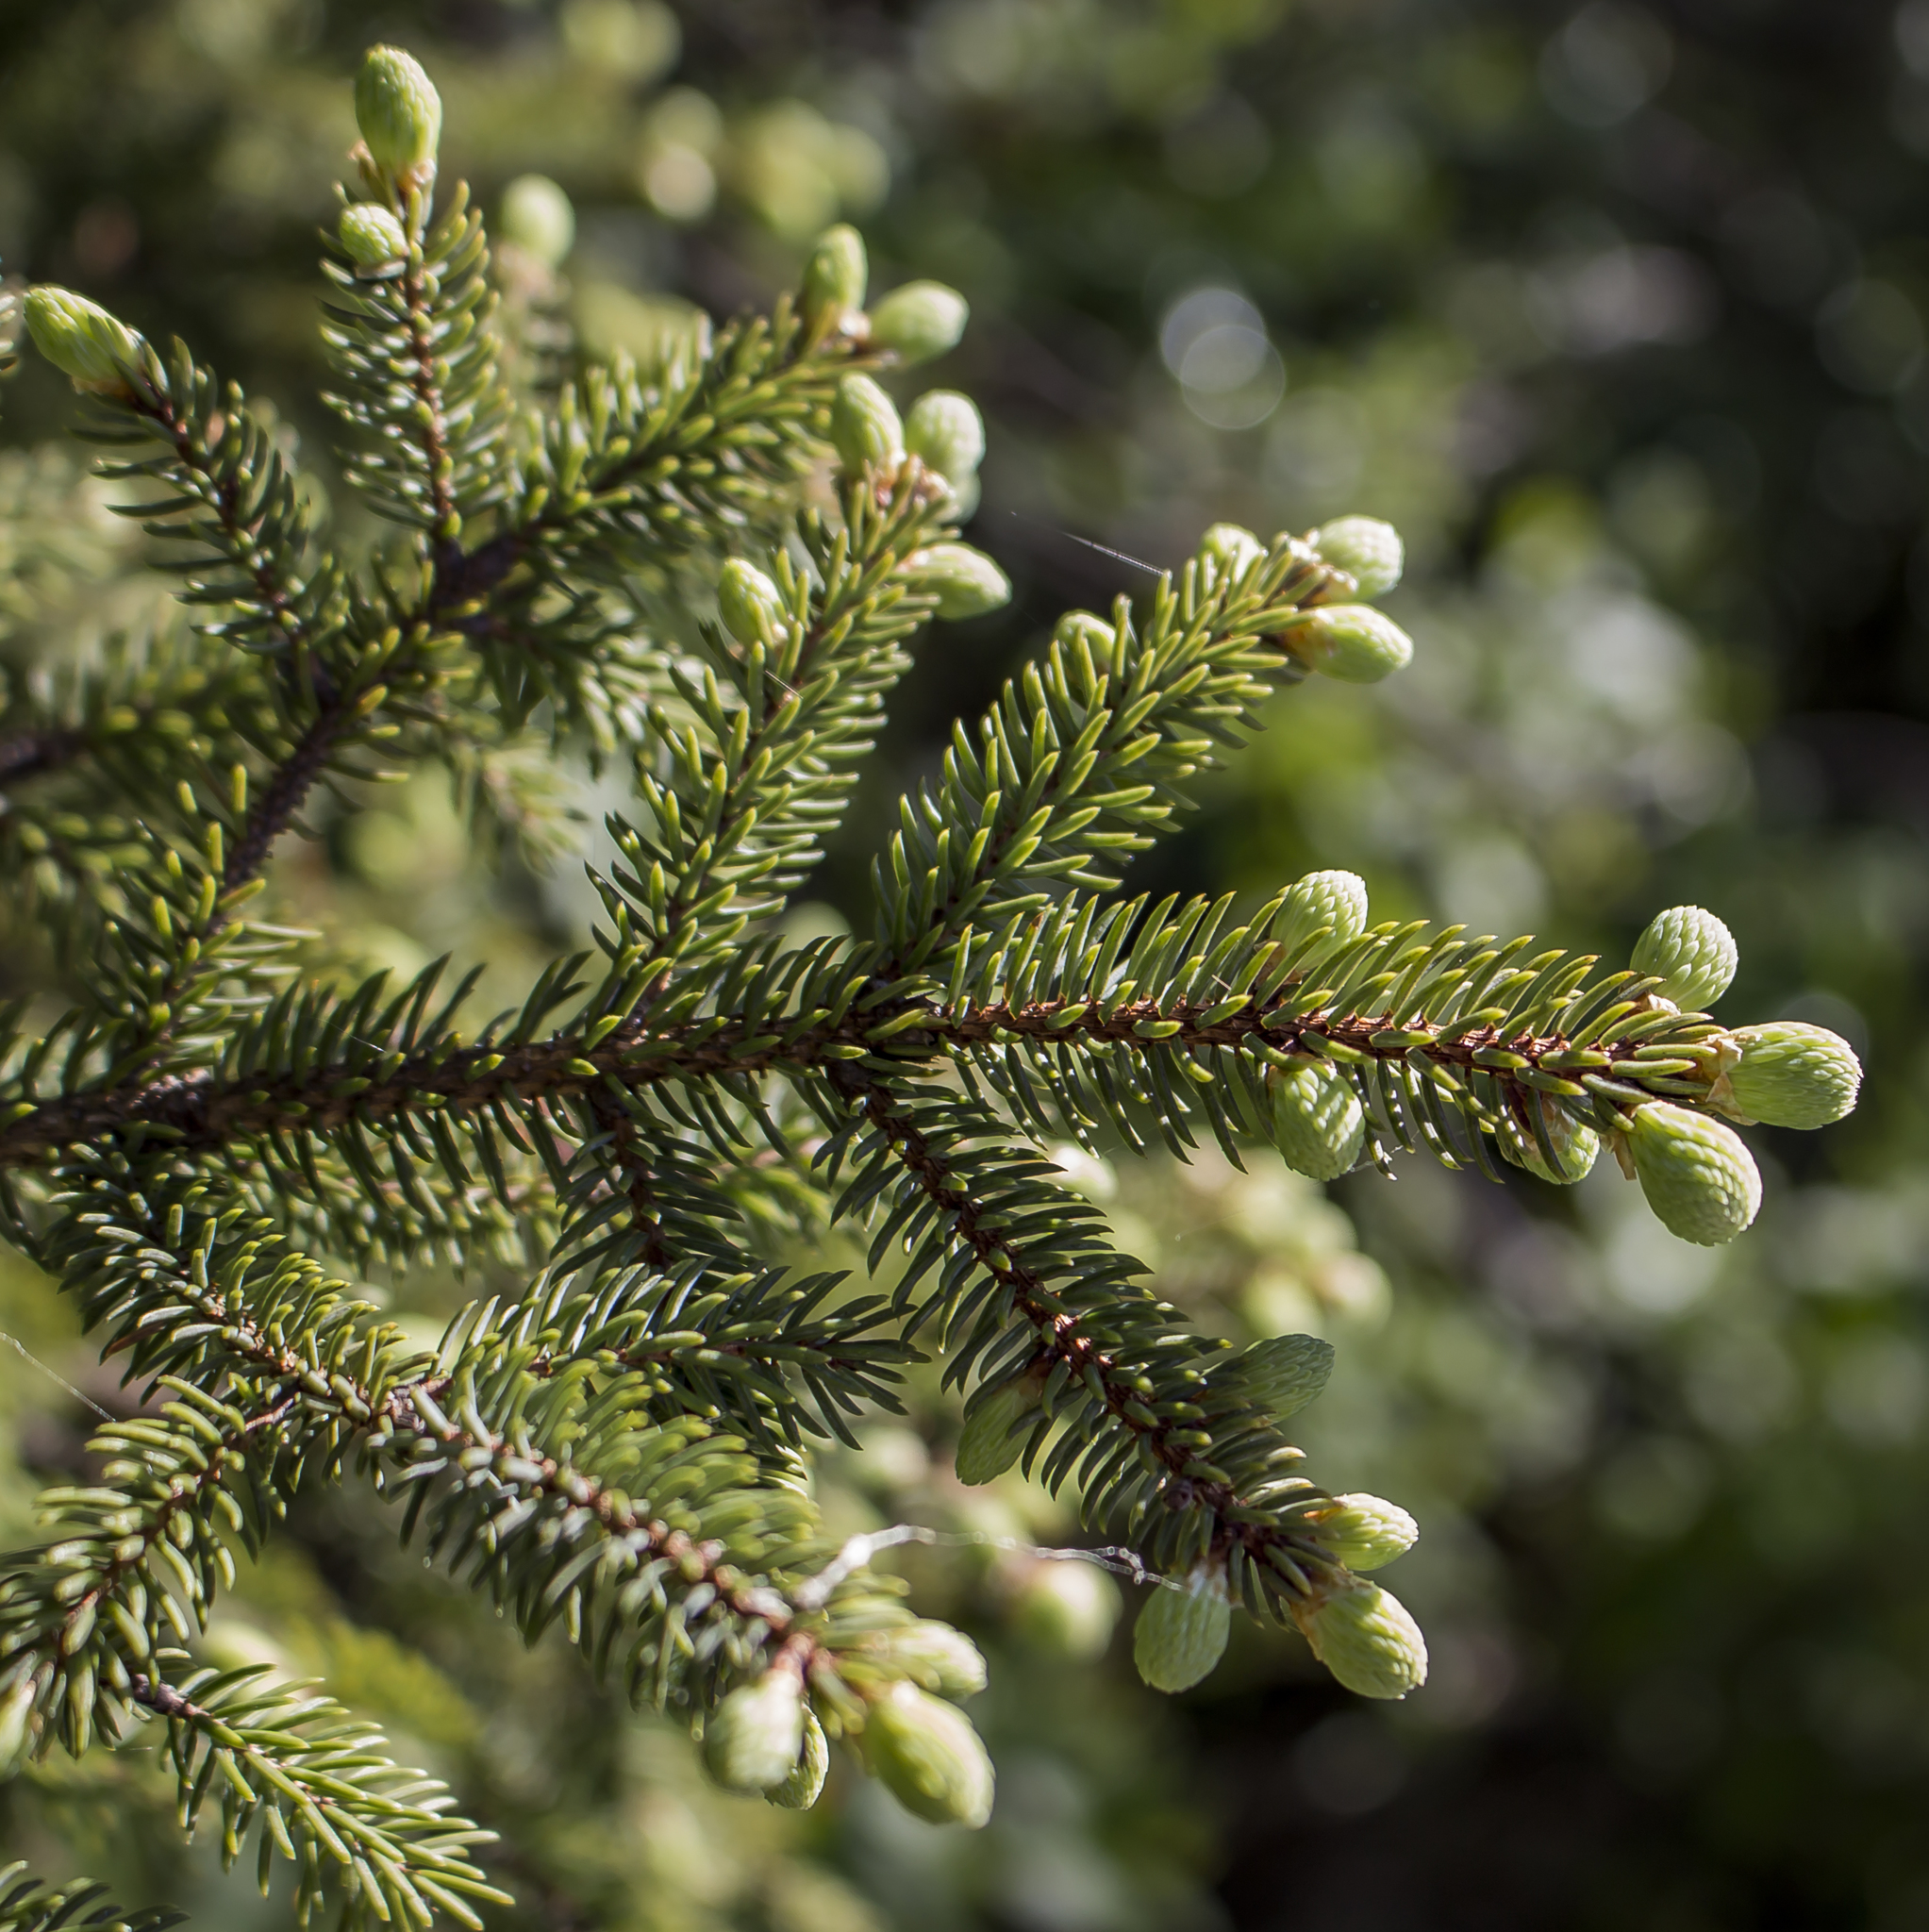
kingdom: Plantae
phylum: Tracheophyta
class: Pinopsida
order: Pinales
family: Pinaceae
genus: Picea
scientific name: Picea mariana
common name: Black spruce
